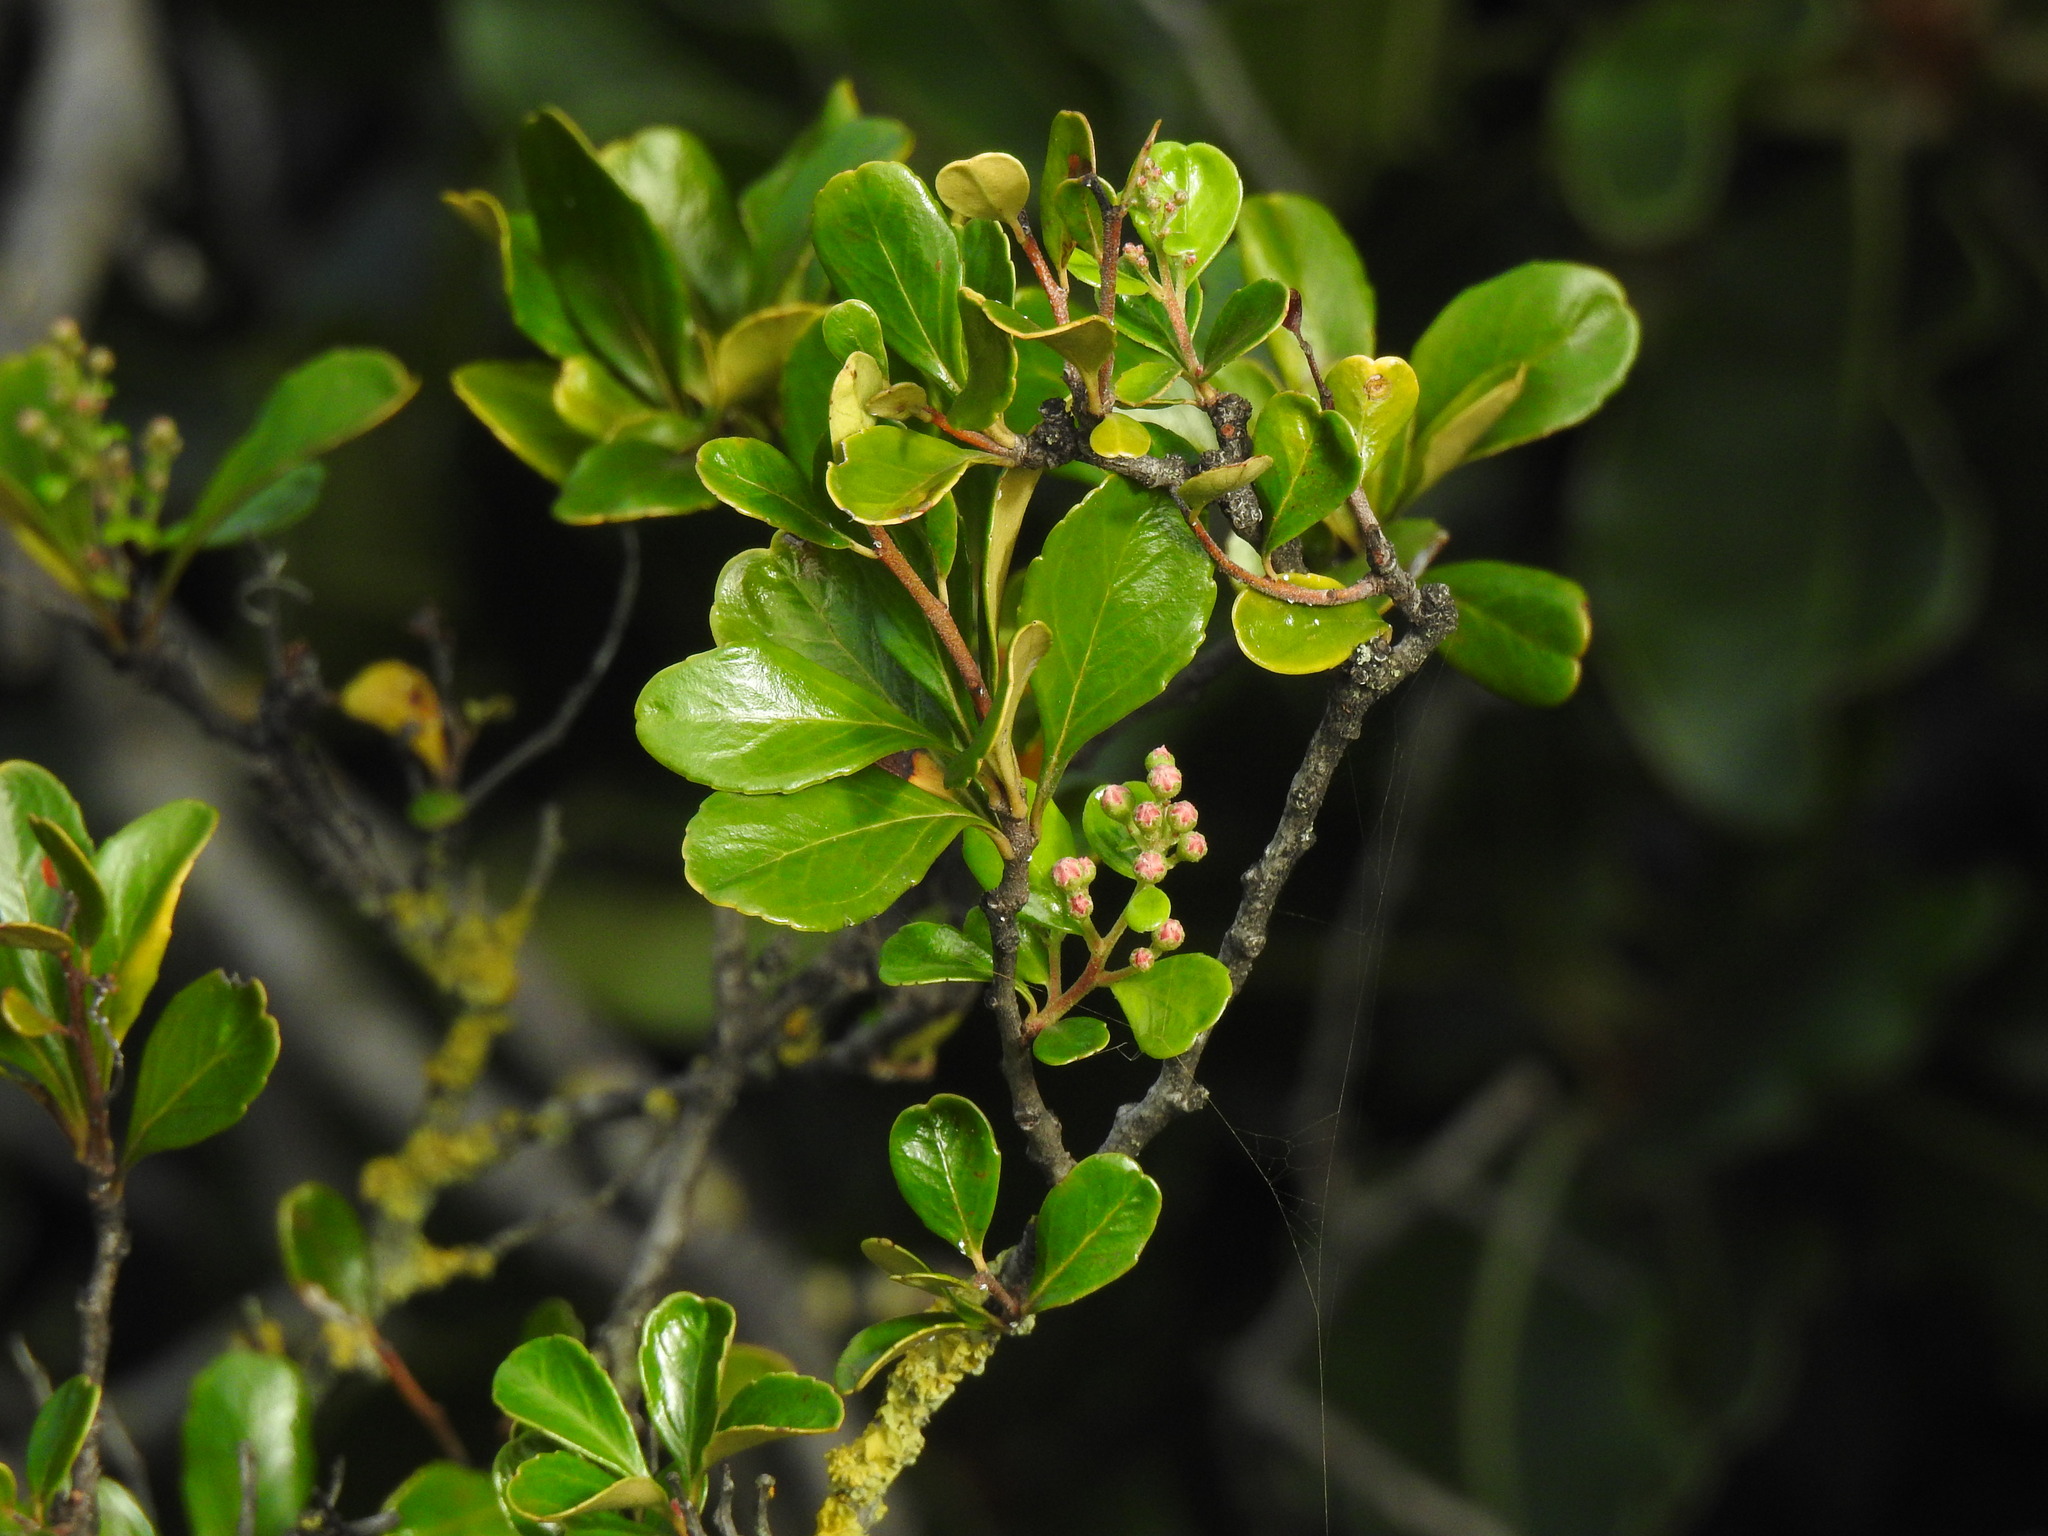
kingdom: Plantae
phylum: Tracheophyta
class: Magnoliopsida
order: Rosales
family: Rosaceae
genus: Chamaemeles
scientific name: Chamaemeles coriacea
